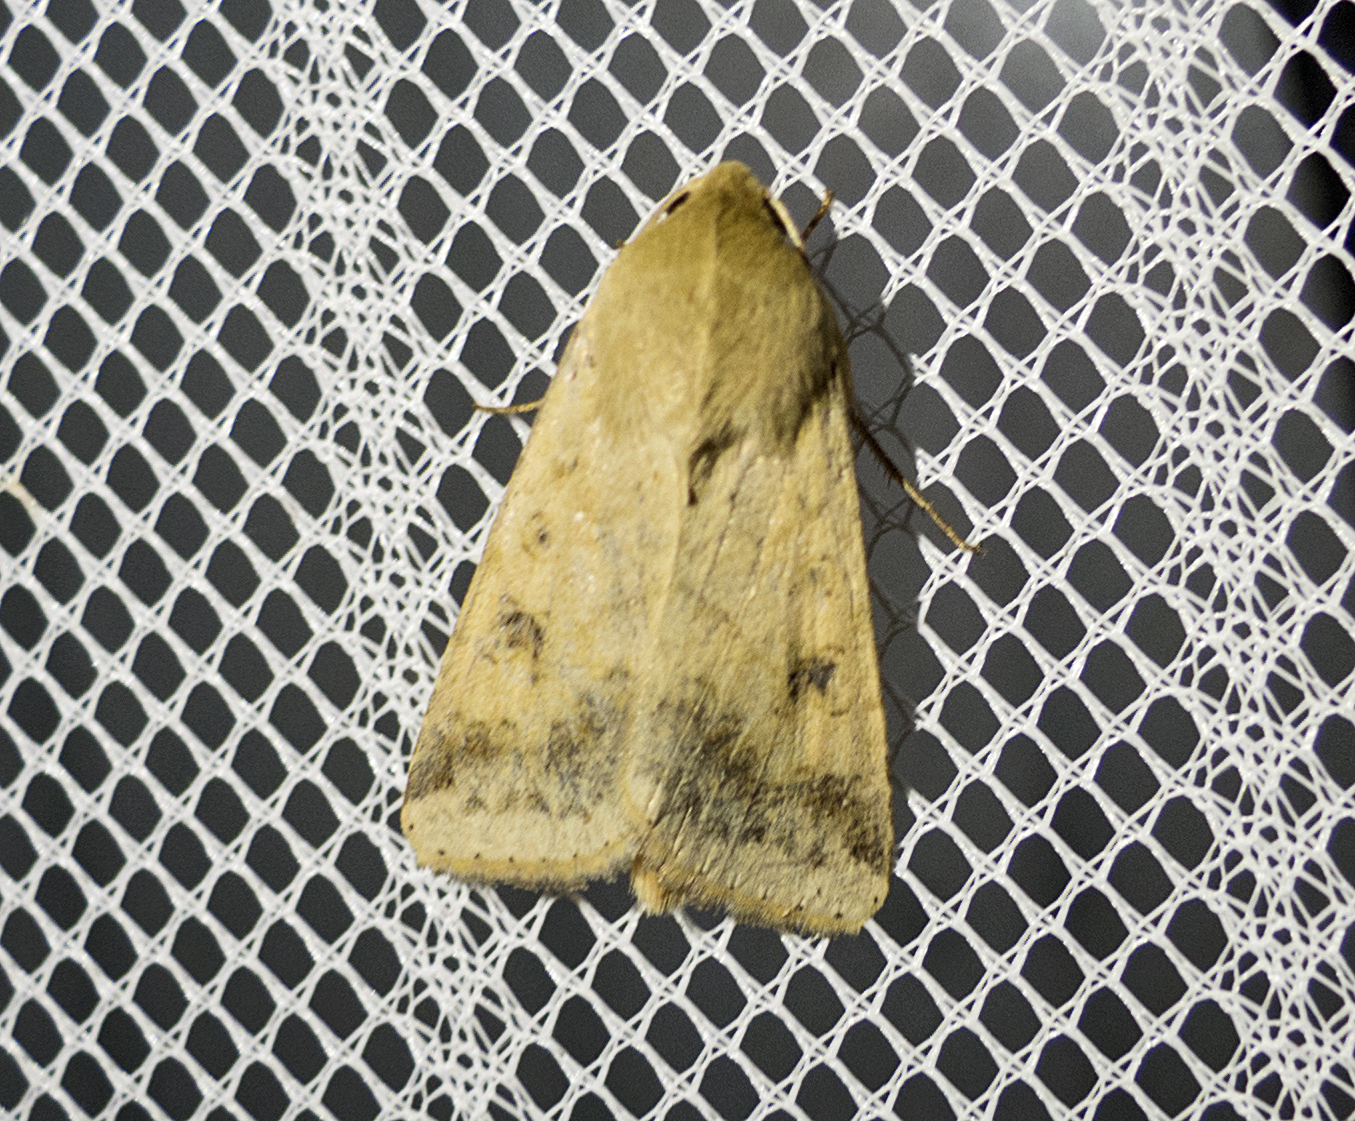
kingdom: Animalia
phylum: Arthropoda
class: Insecta
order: Lepidoptera
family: Noctuidae
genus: Helicoverpa
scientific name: Helicoverpa armigera
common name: Cotton bollworm
